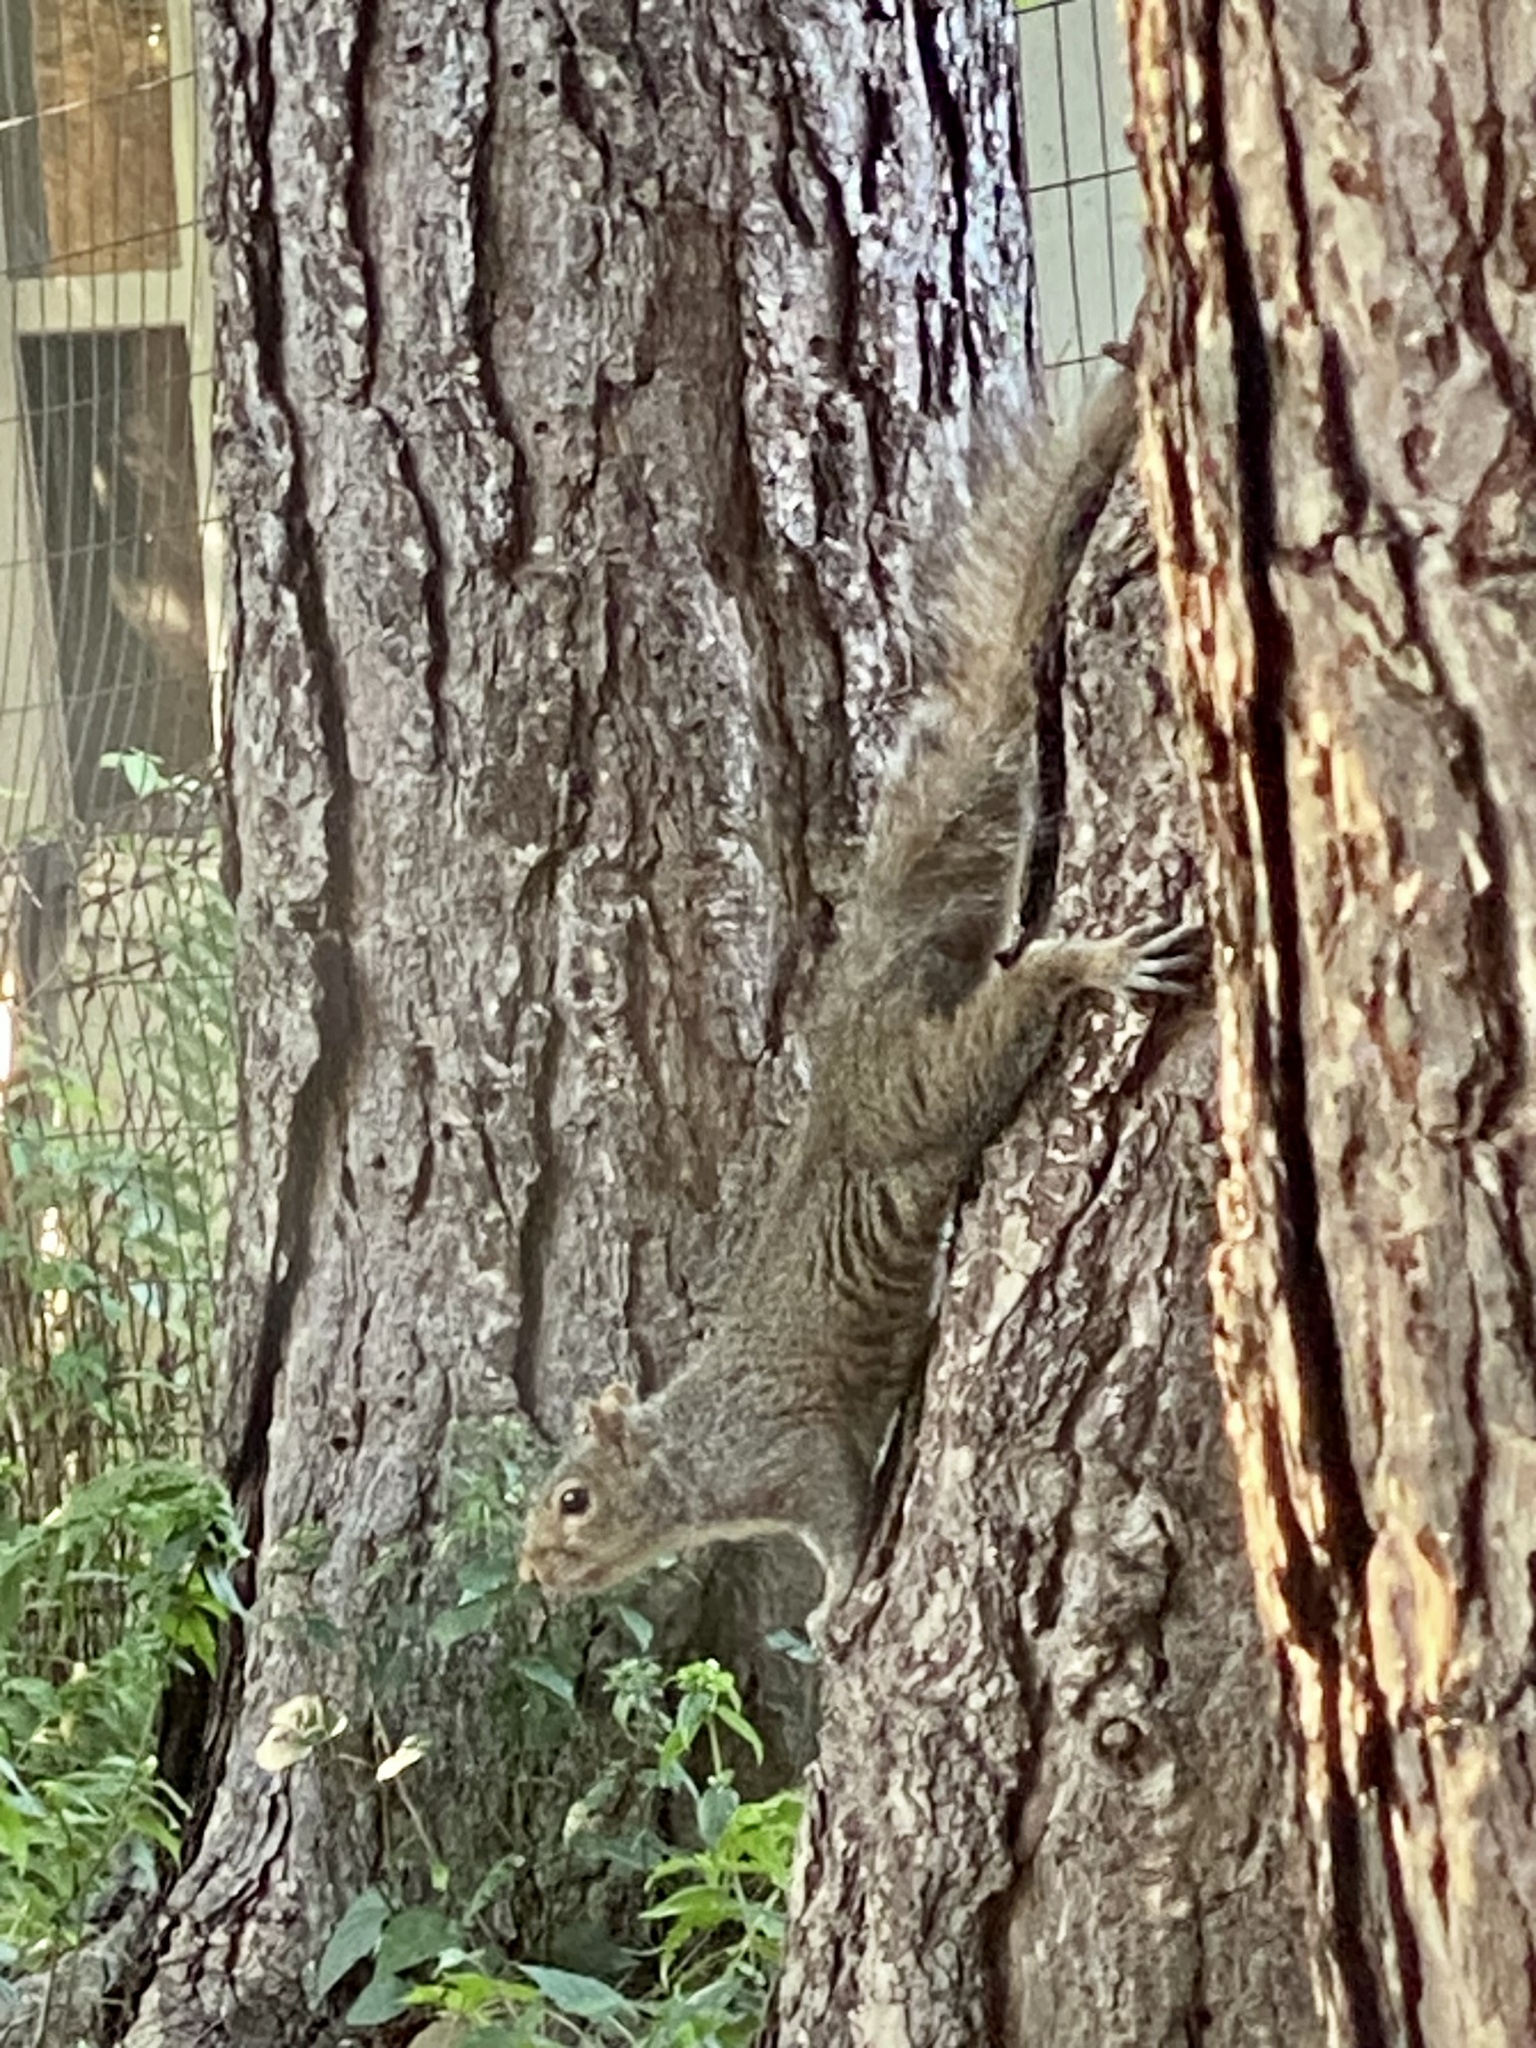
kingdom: Animalia
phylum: Chordata
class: Mammalia
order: Rodentia
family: Sciuridae
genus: Sciurus
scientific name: Sciurus carolinensis
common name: Eastern gray squirrel
